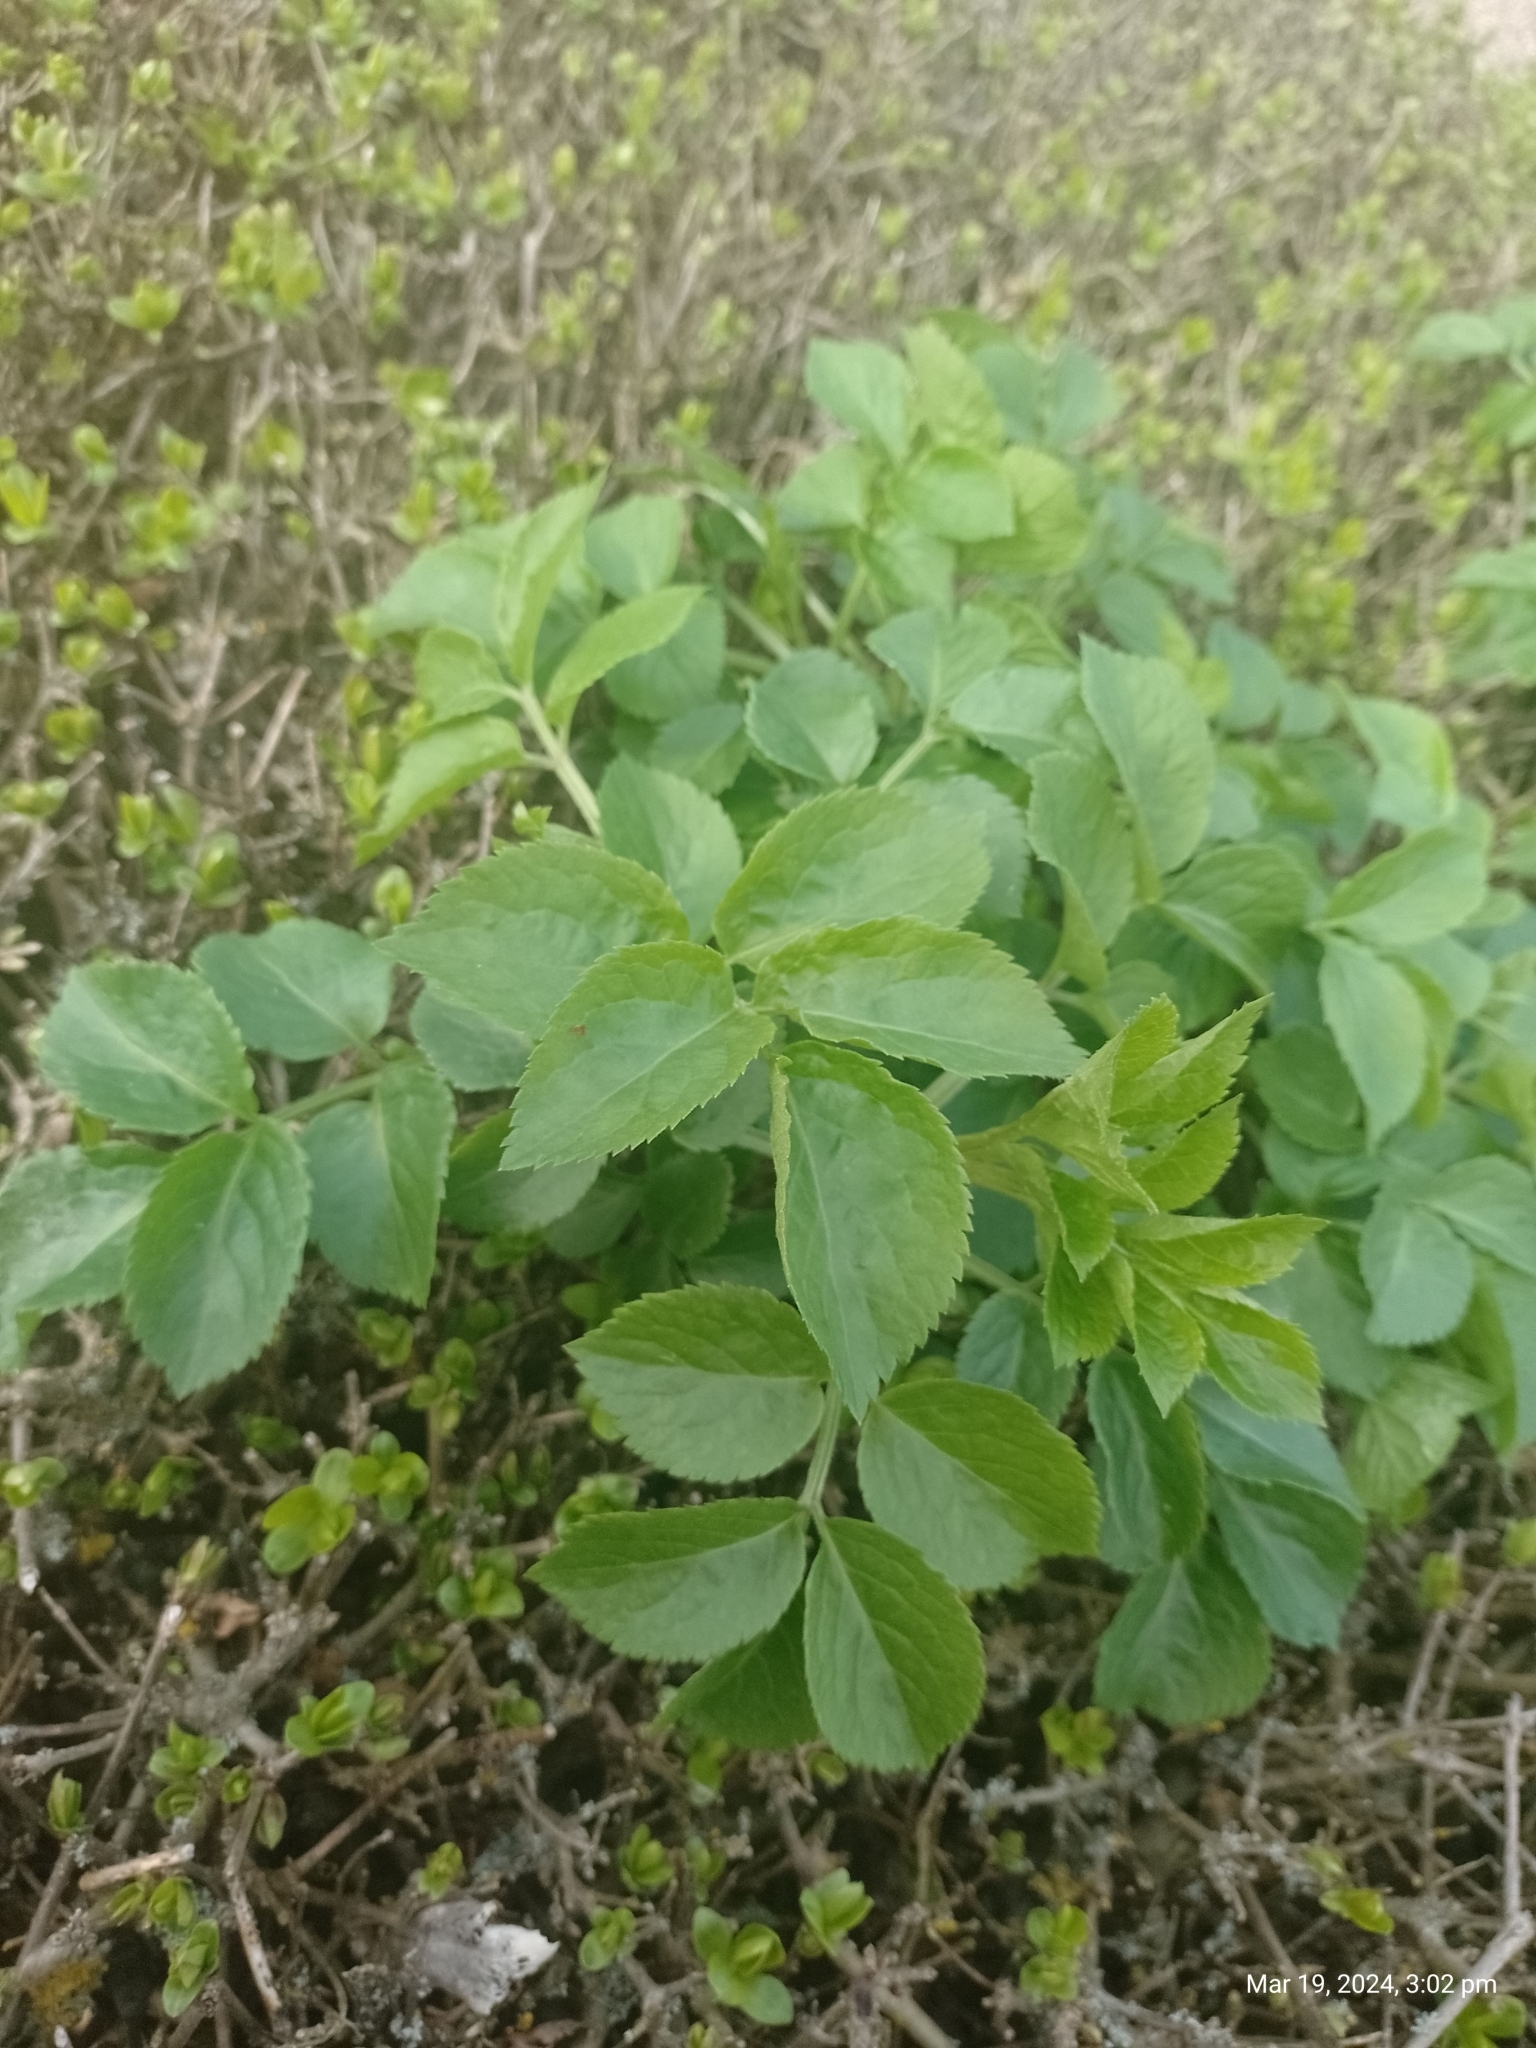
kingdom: Plantae
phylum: Tracheophyta
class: Magnoliopsida
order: Dipsacales
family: Viburnaceae
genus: Sambucus
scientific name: Sambucus nigra
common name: Elder
